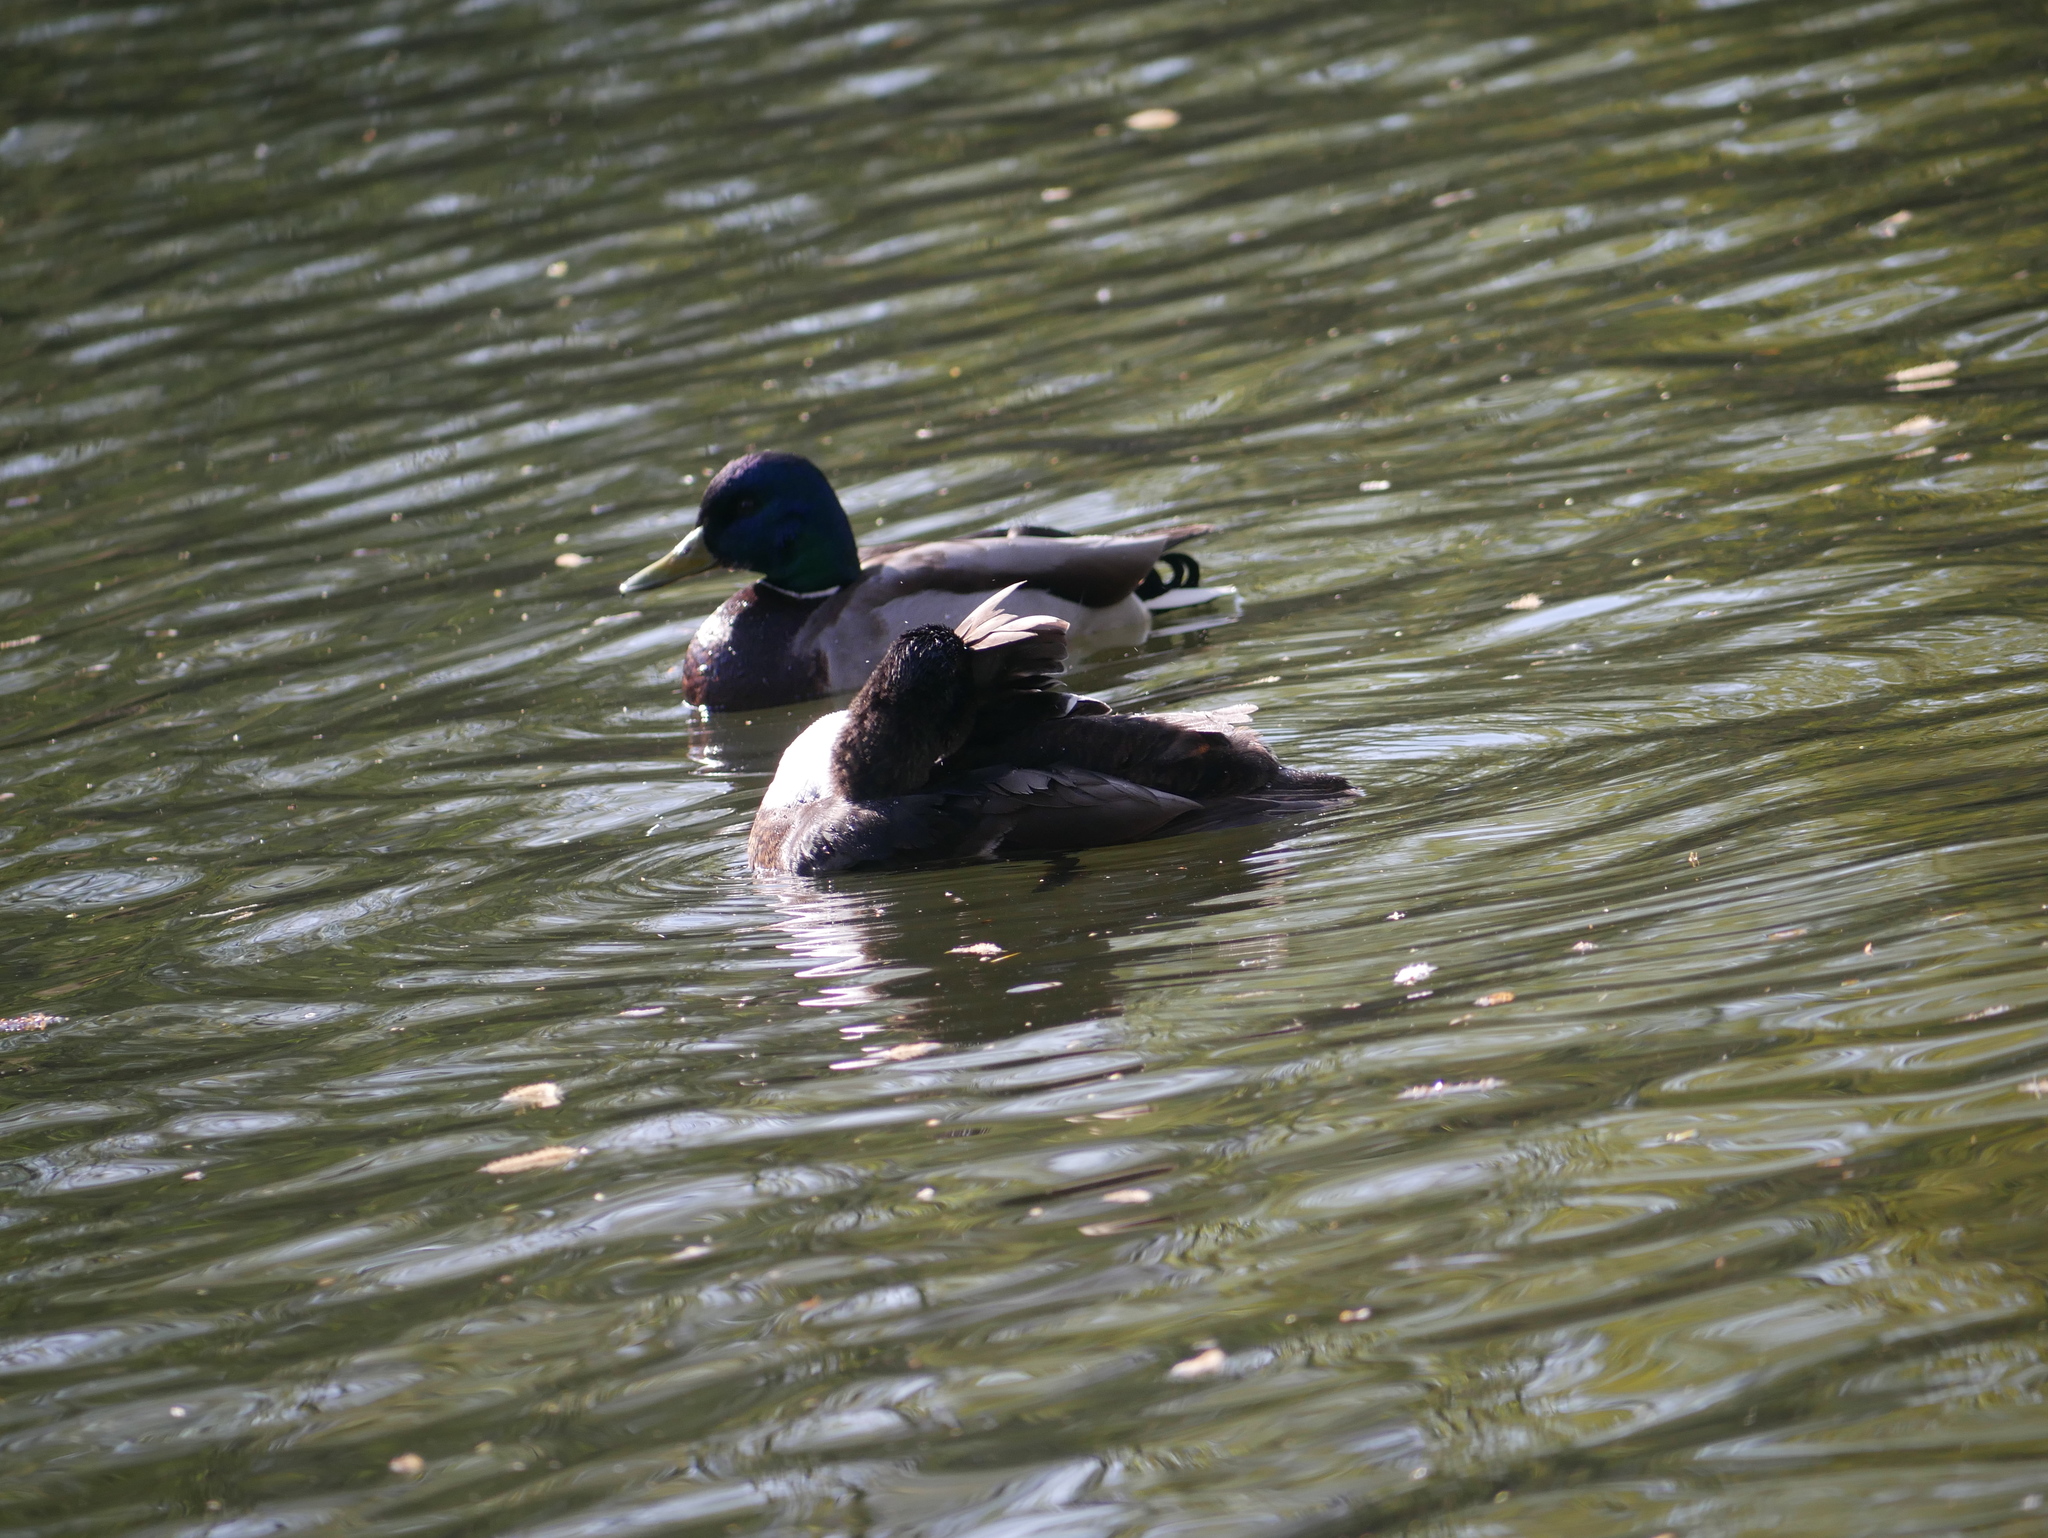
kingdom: Animalia
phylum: Chordata
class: Aves
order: Anseriformes
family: Anatidae
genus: Anas
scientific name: Anas platyrhynchos
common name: Mallard
